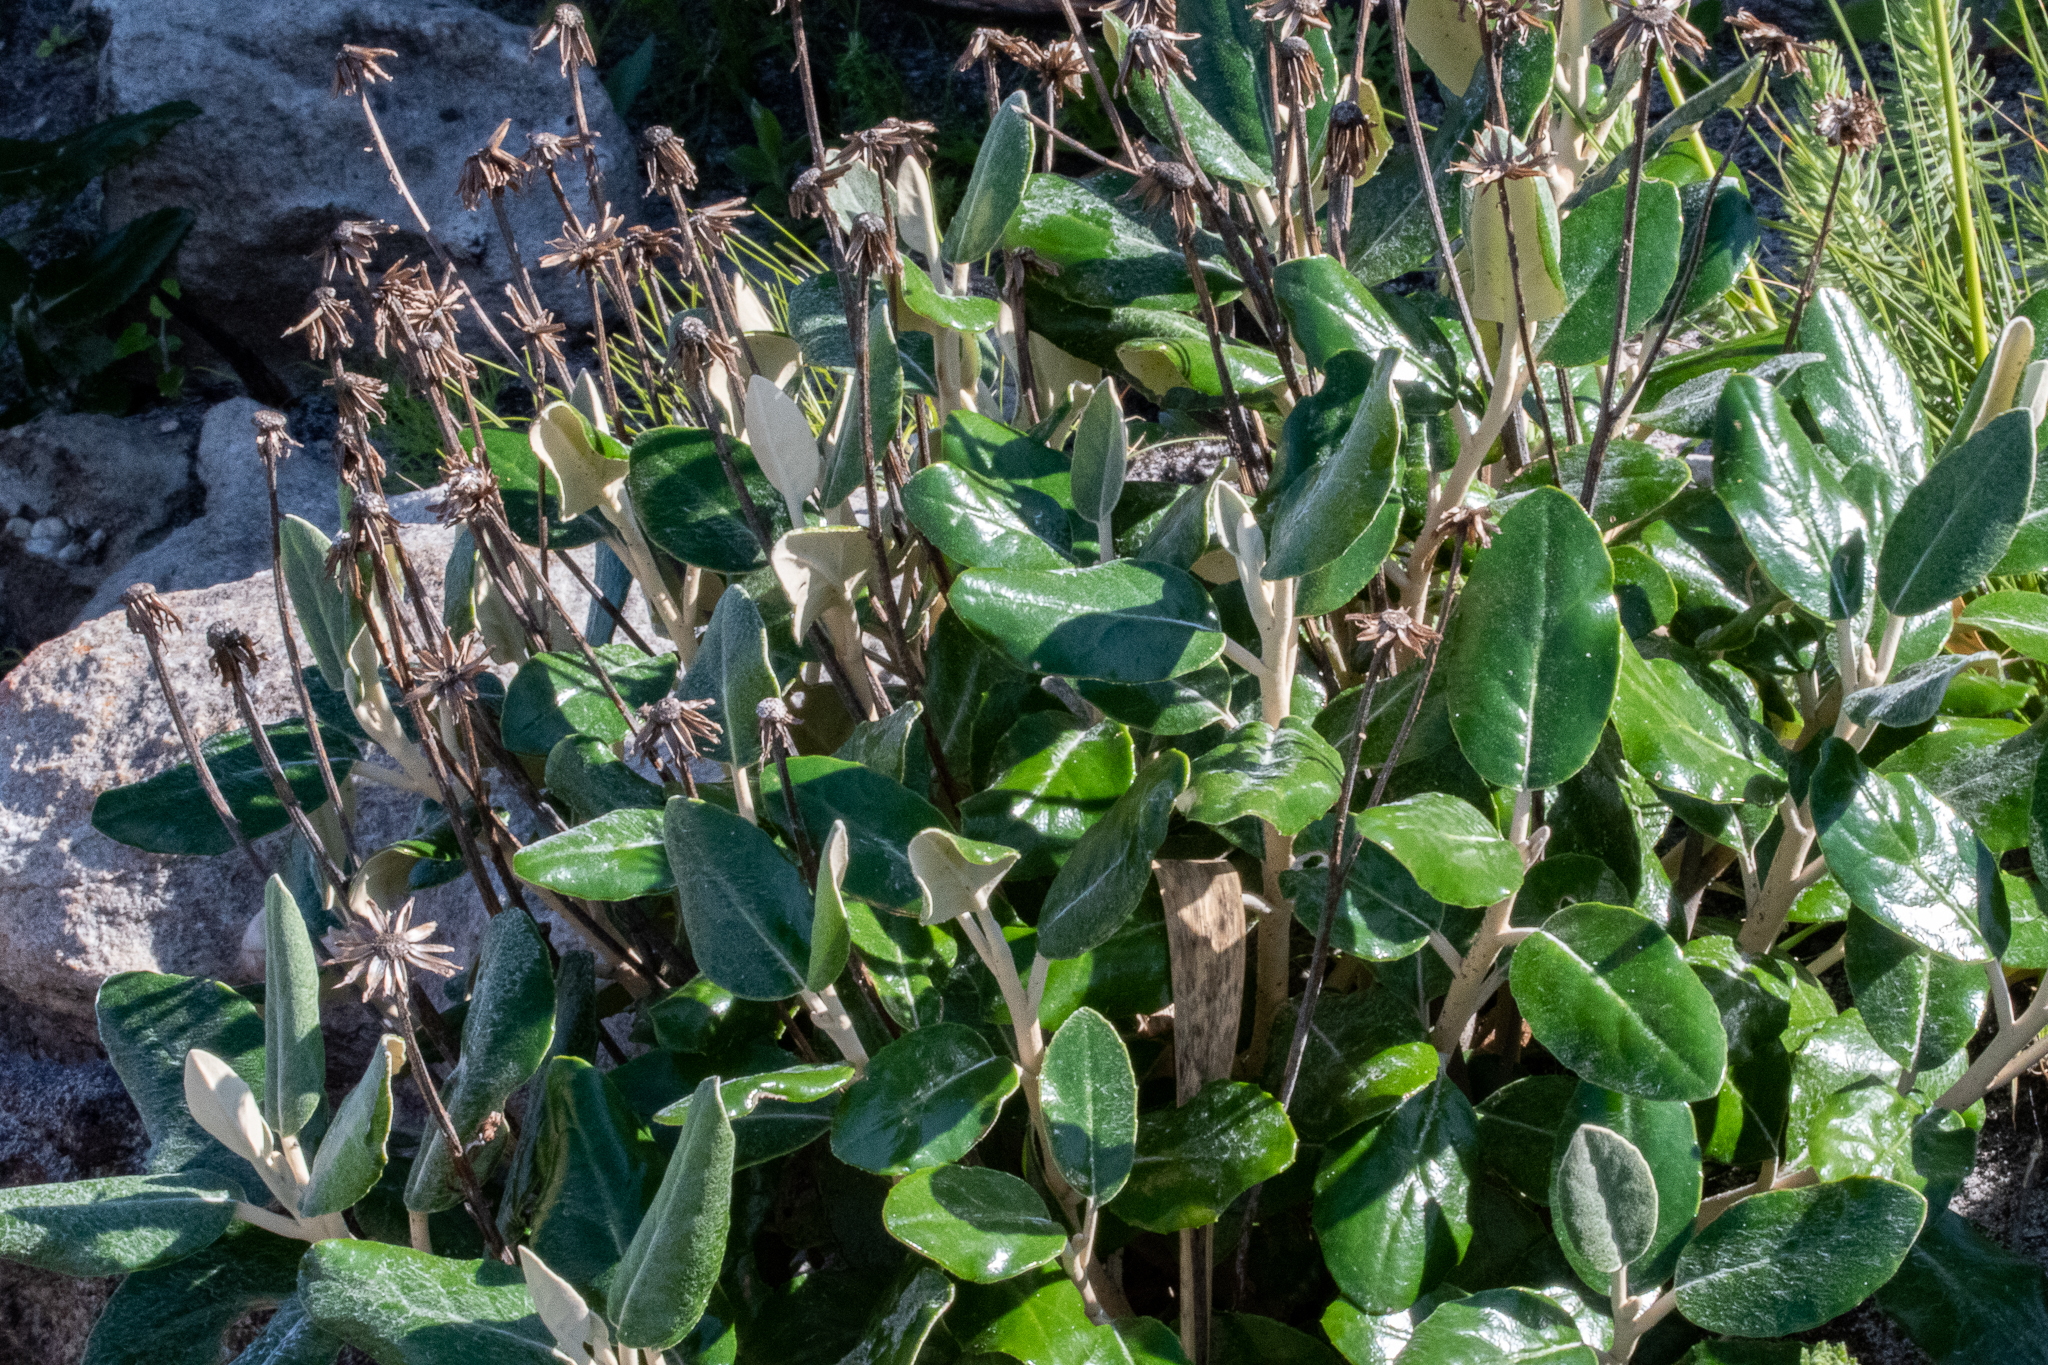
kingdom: Plantae
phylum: Tracheophyta
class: Magnoliopsida
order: Asterales
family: Asteraceae
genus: Capelio
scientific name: Capelio tabularis
